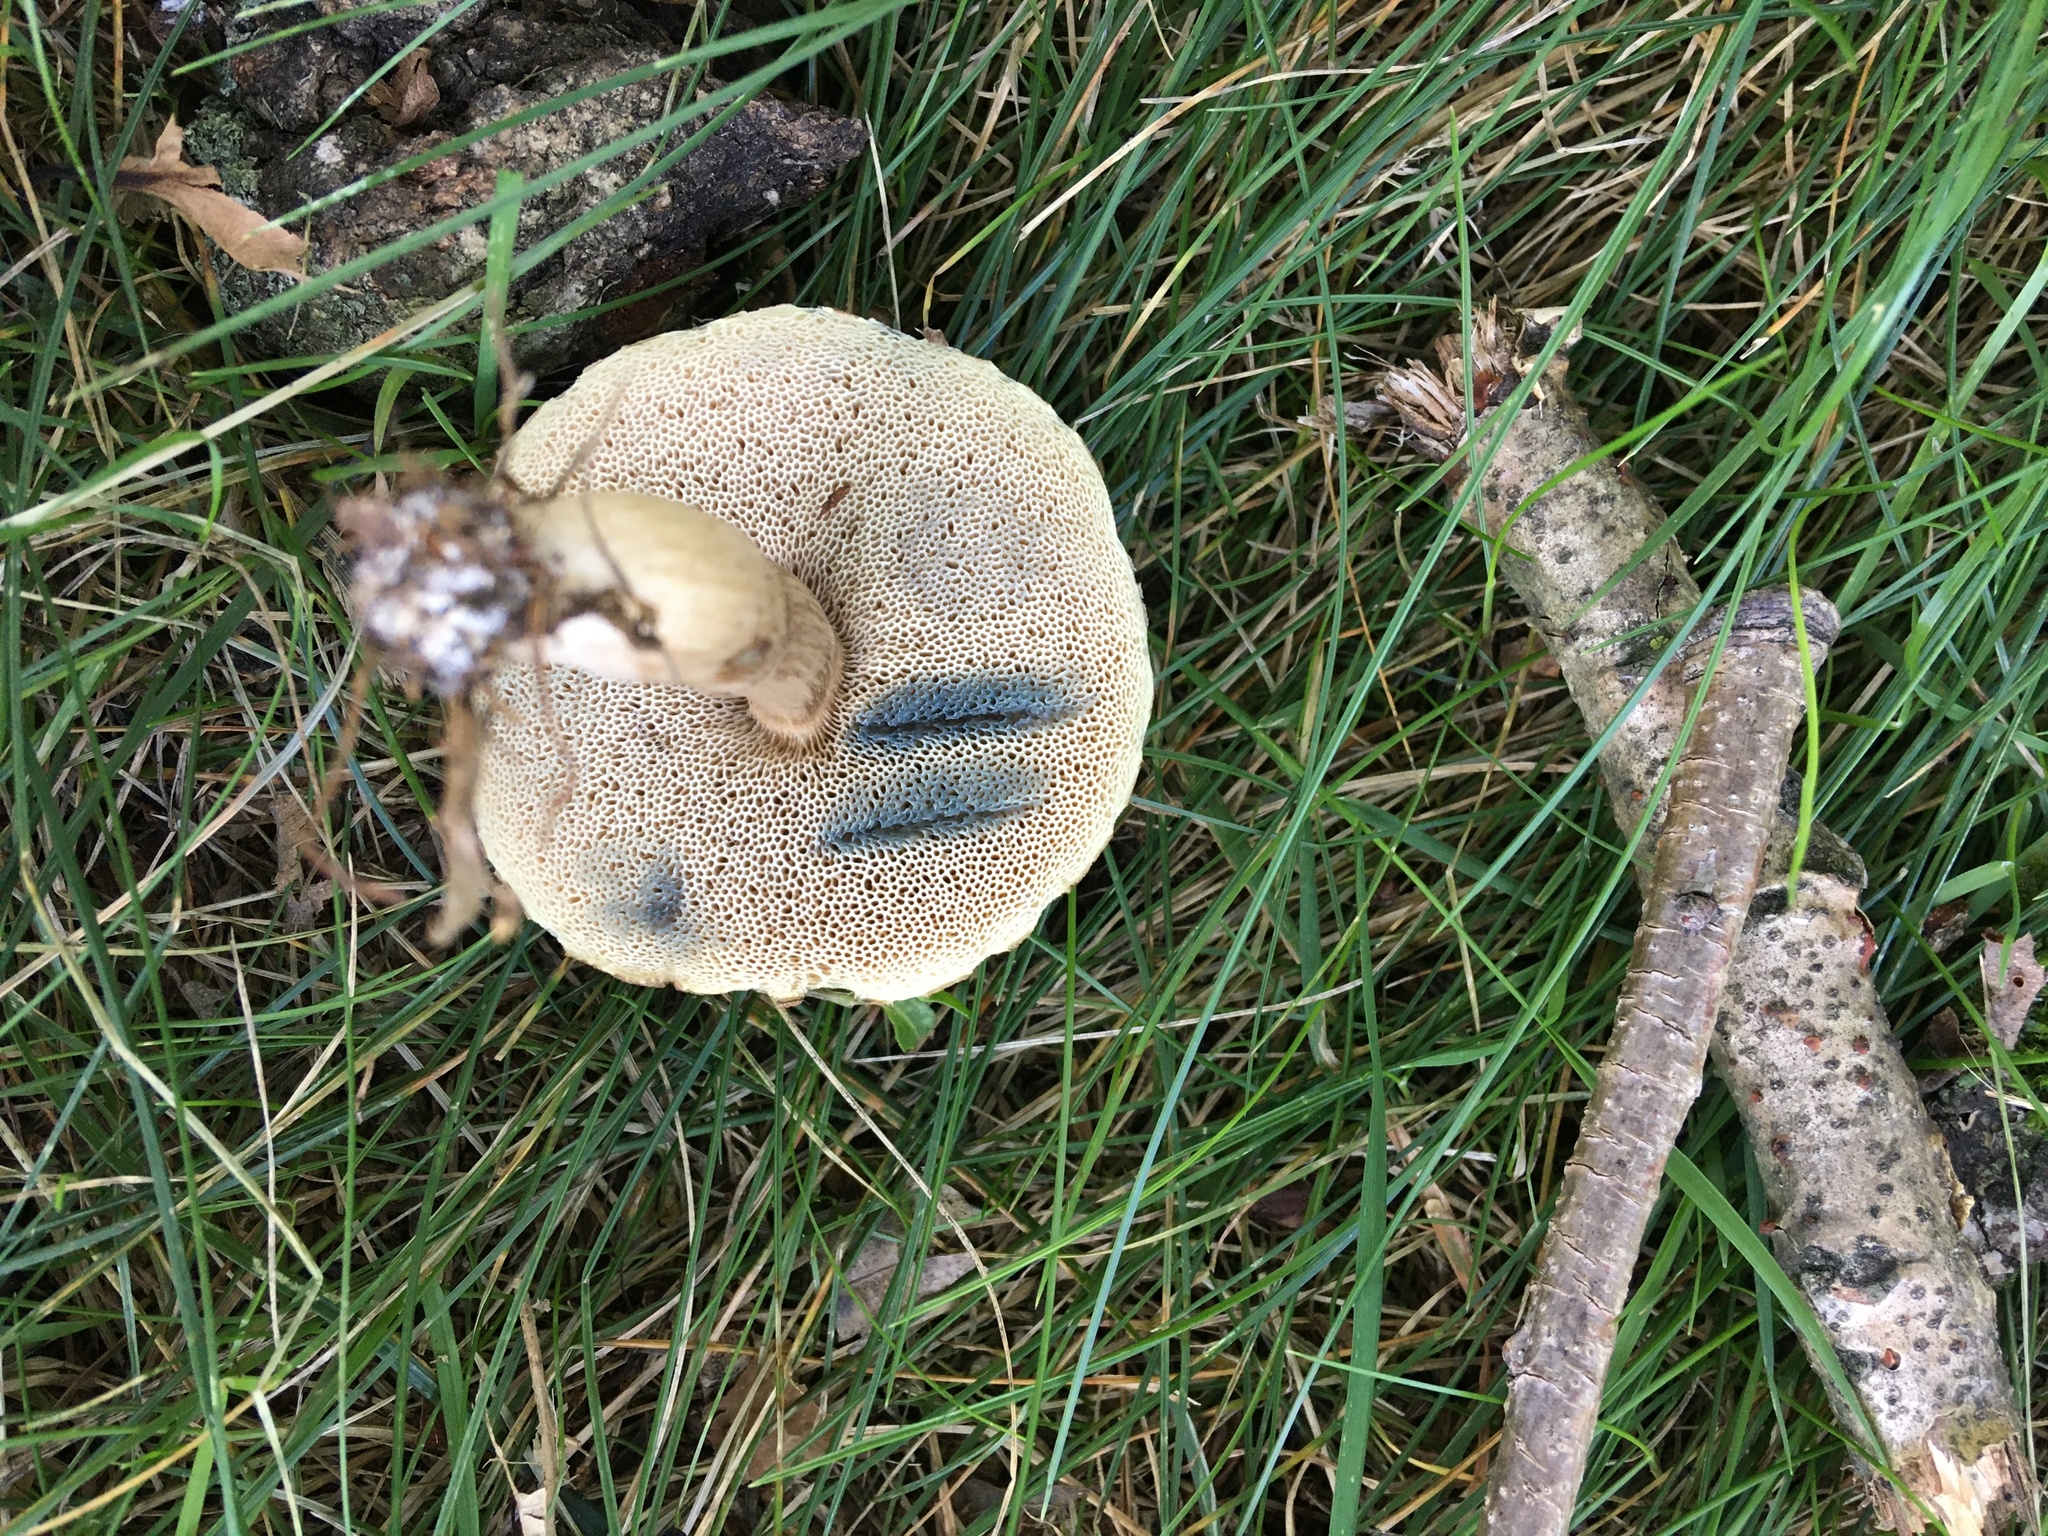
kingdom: Fungi
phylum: Basidiomycota
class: Agaricomycetes
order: Boletales
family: Boletaceae
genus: Porphyrellus
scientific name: Porphyrellus sordidus
